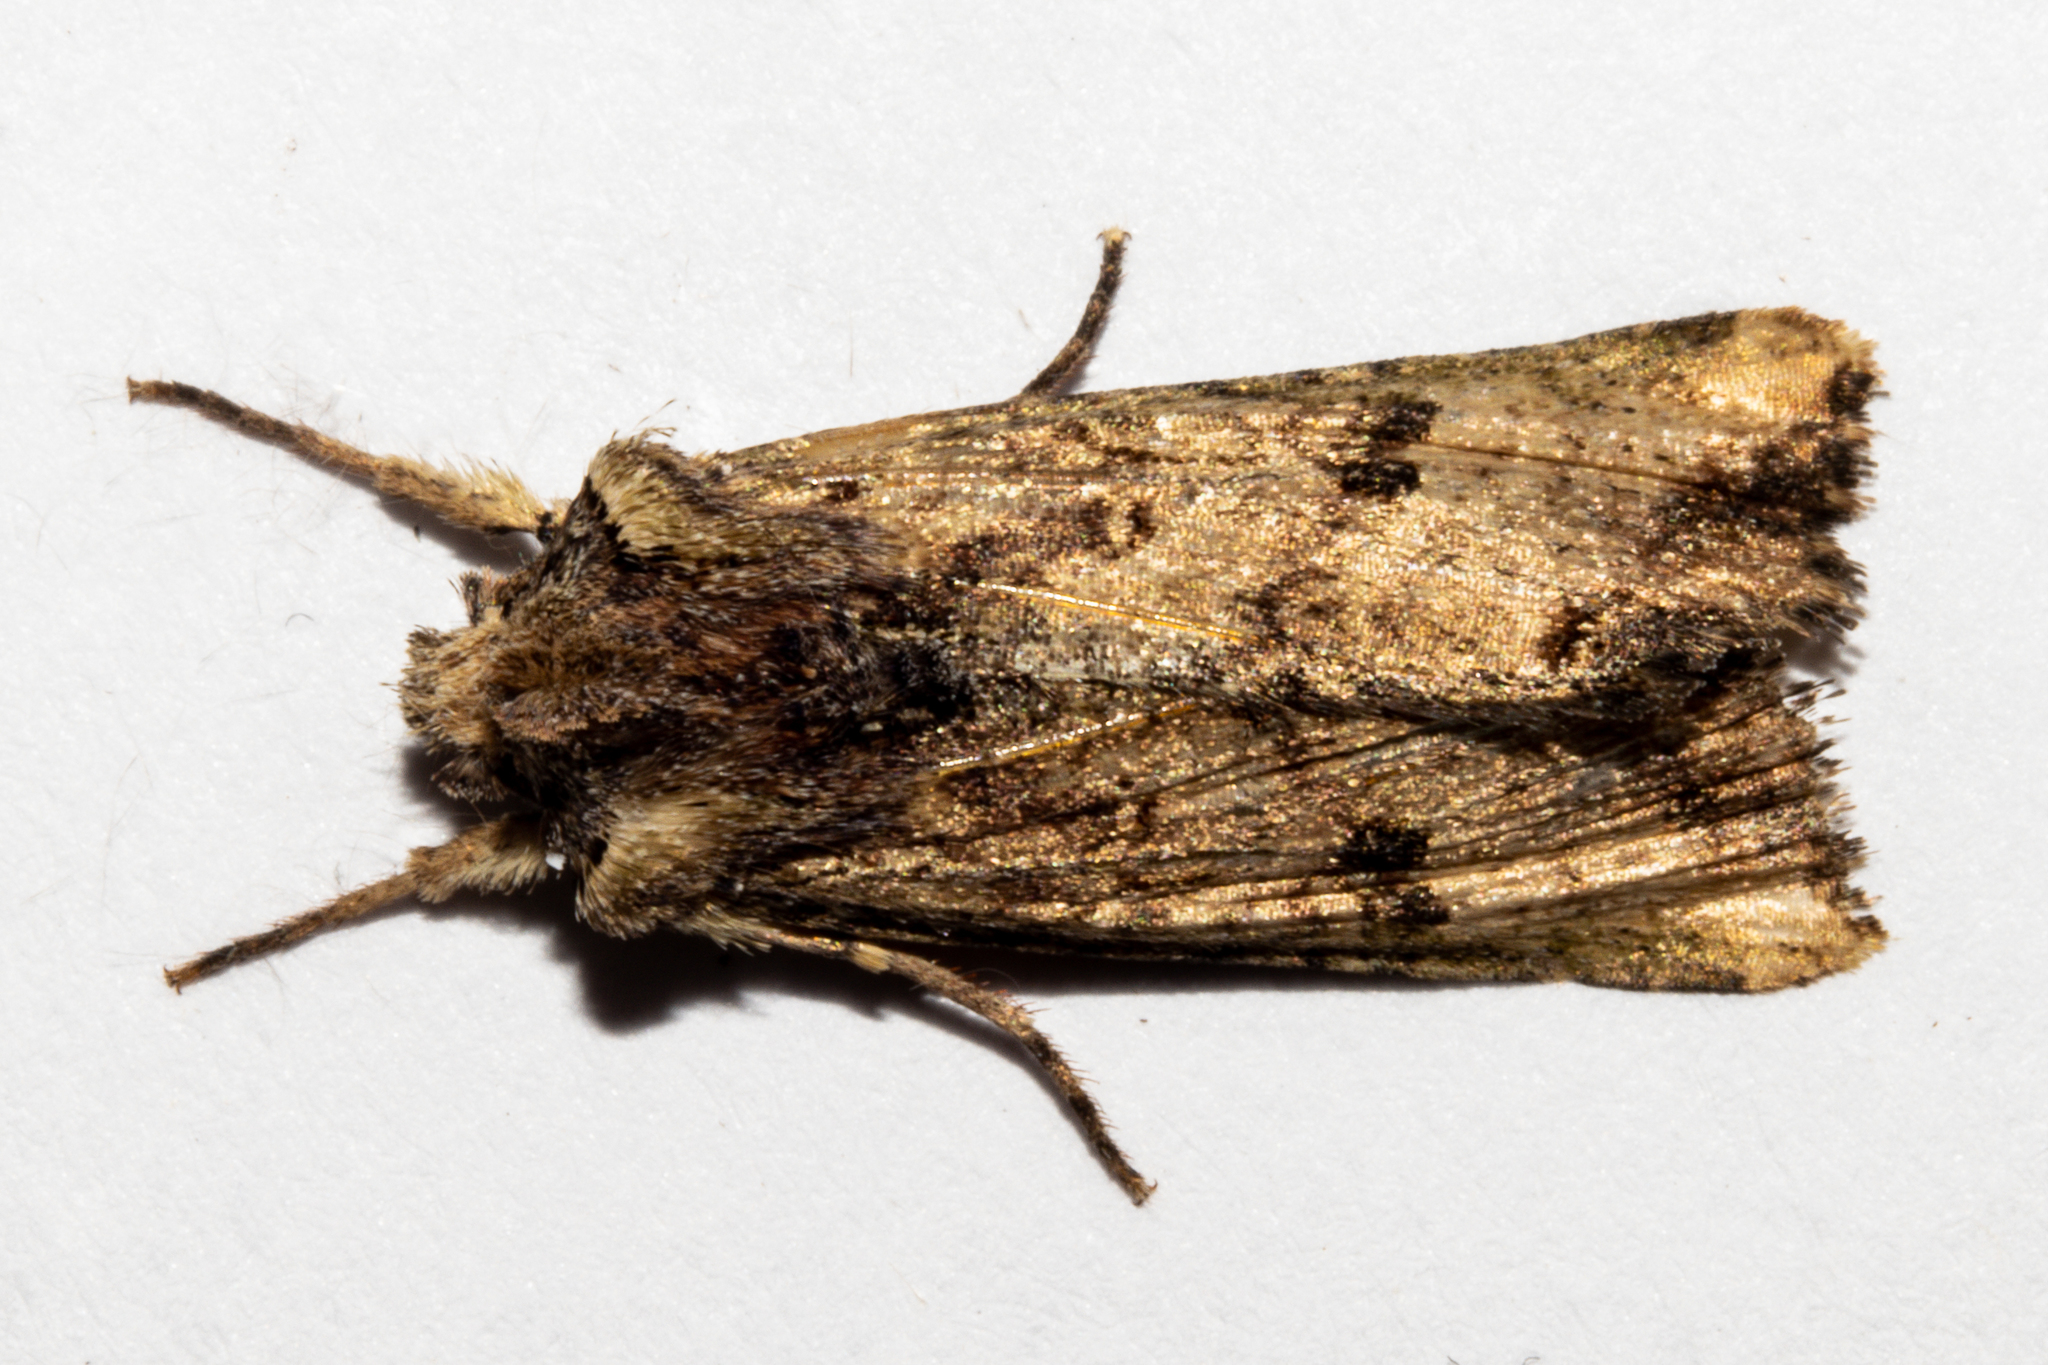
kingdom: Animalia
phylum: Arthropoda
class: Insecta
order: Lepidoptera
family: Noctuidae
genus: Meterana
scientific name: Meterana coeleno
